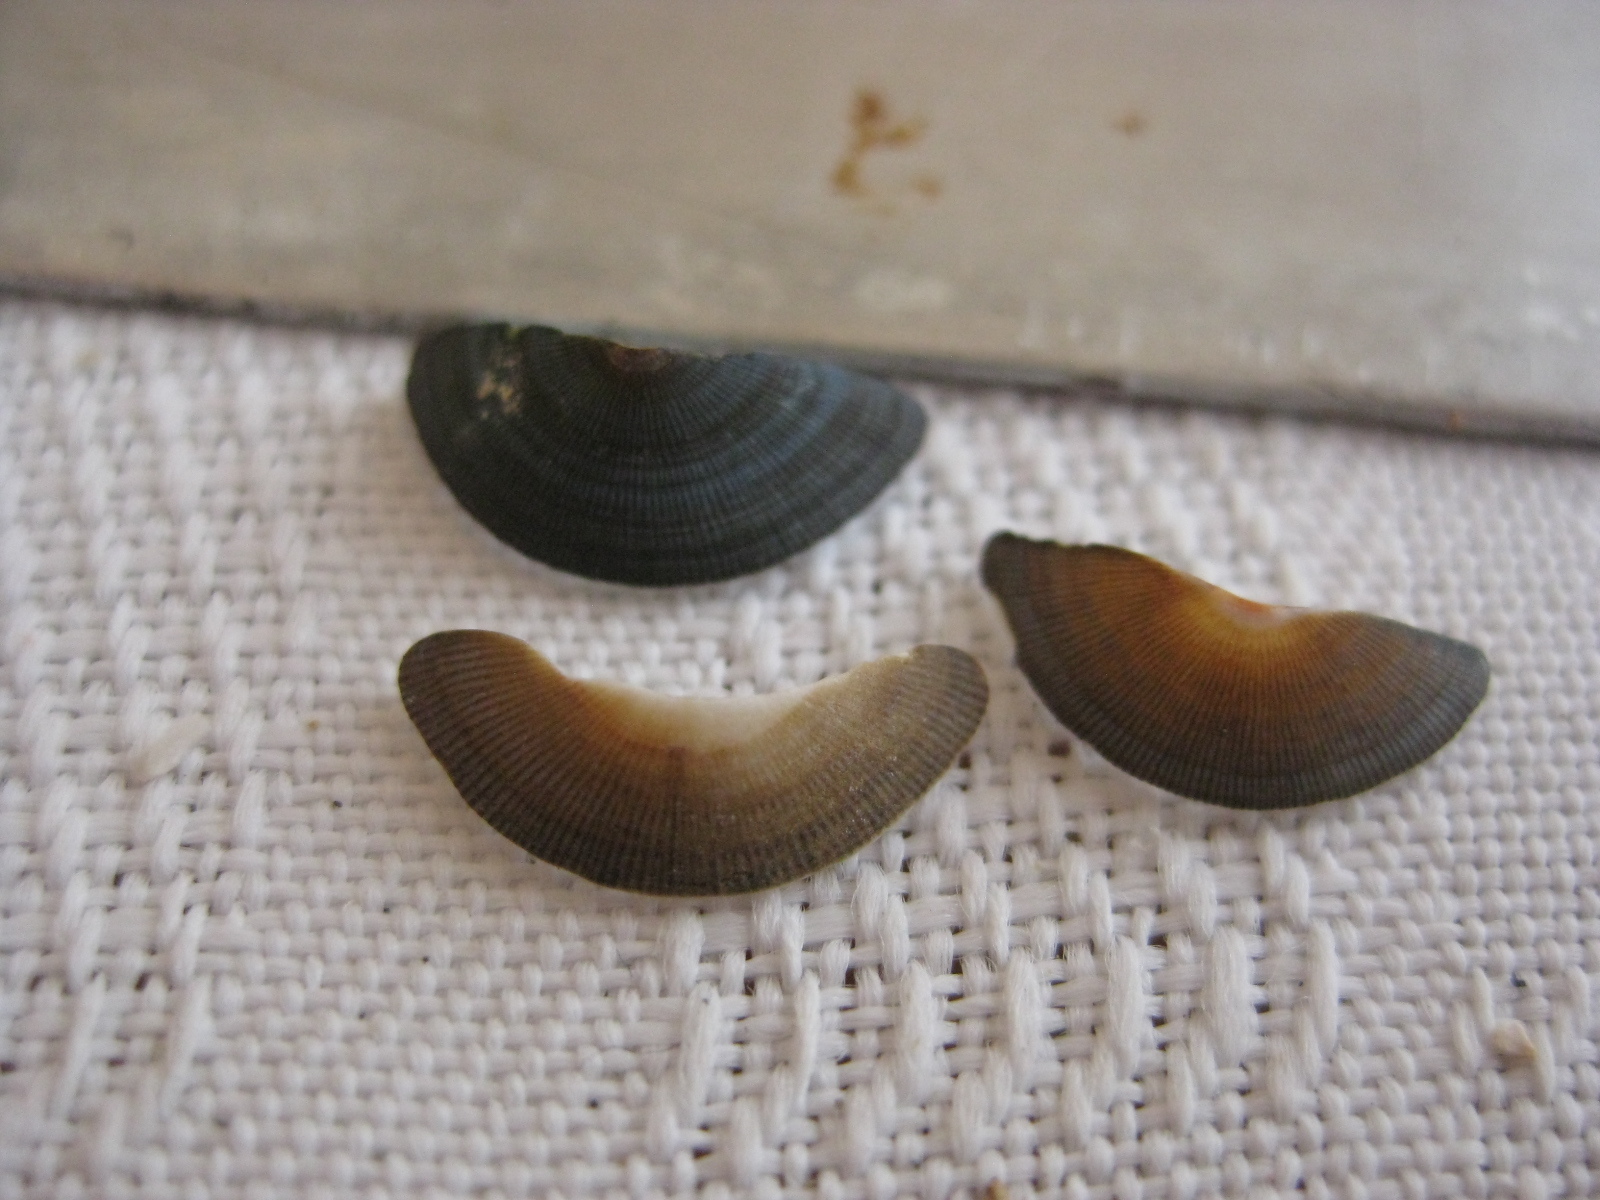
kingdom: Animalia
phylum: Mollusca
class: Polyplacophora
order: Chitonida
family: Chitonidae
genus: Chiton
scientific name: Chiton glaucus
